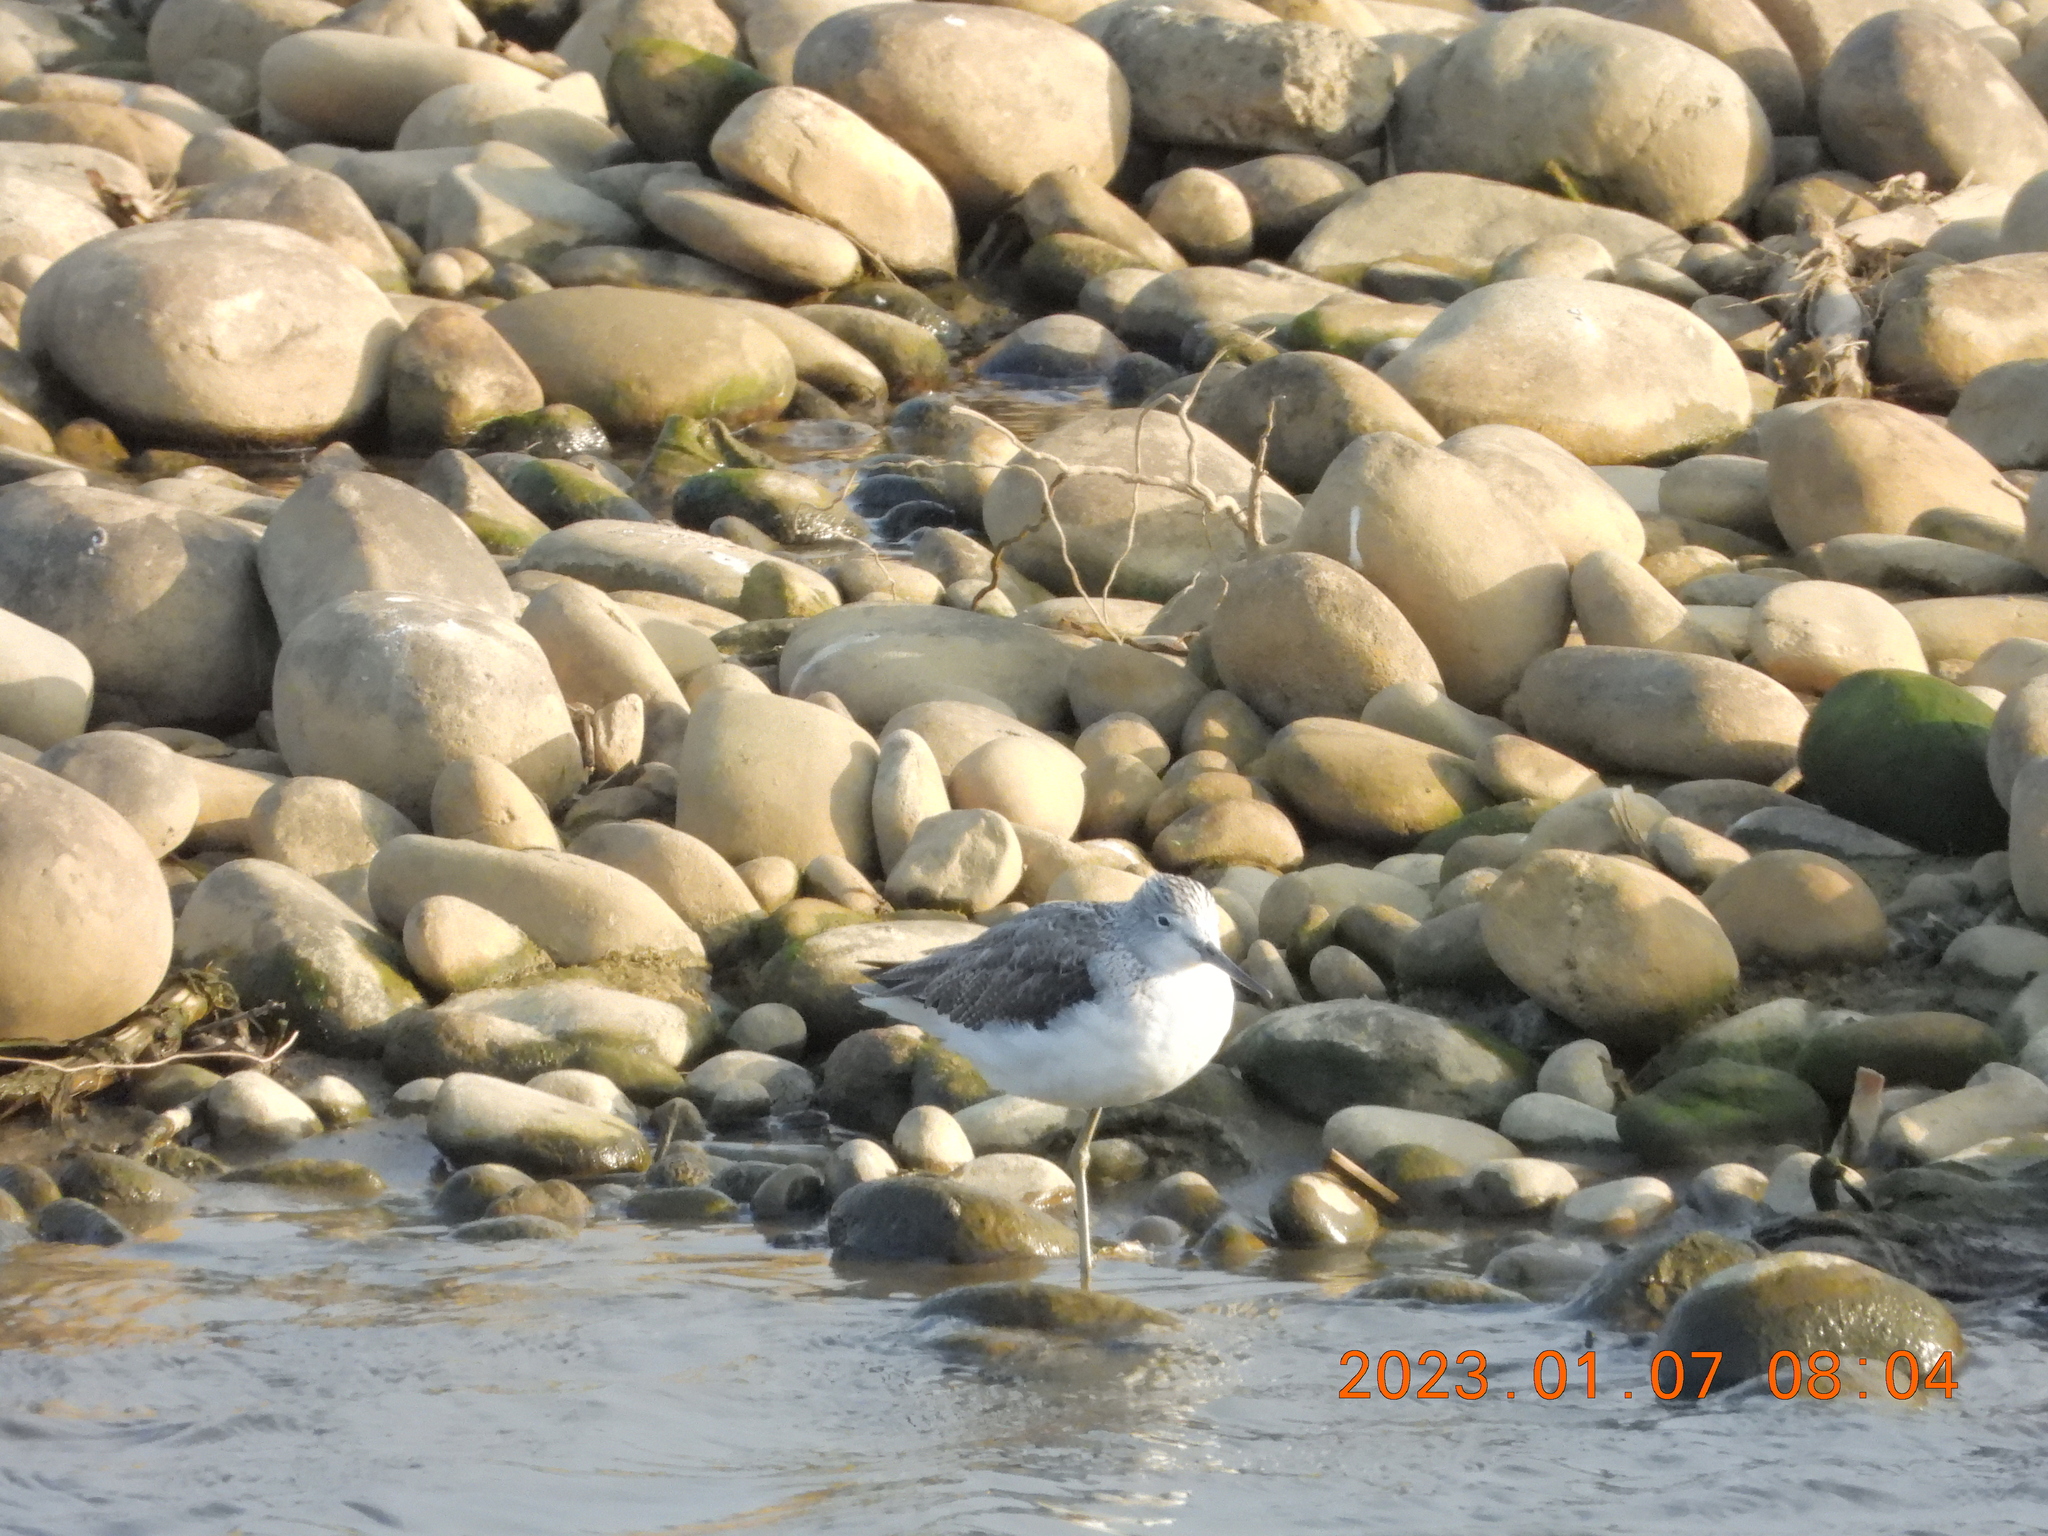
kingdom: Animalia
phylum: Chordata
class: Aves
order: Charadriiformes
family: Scolopacidae
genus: Tringa
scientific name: Tringa nebularia
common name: Common greenshank
